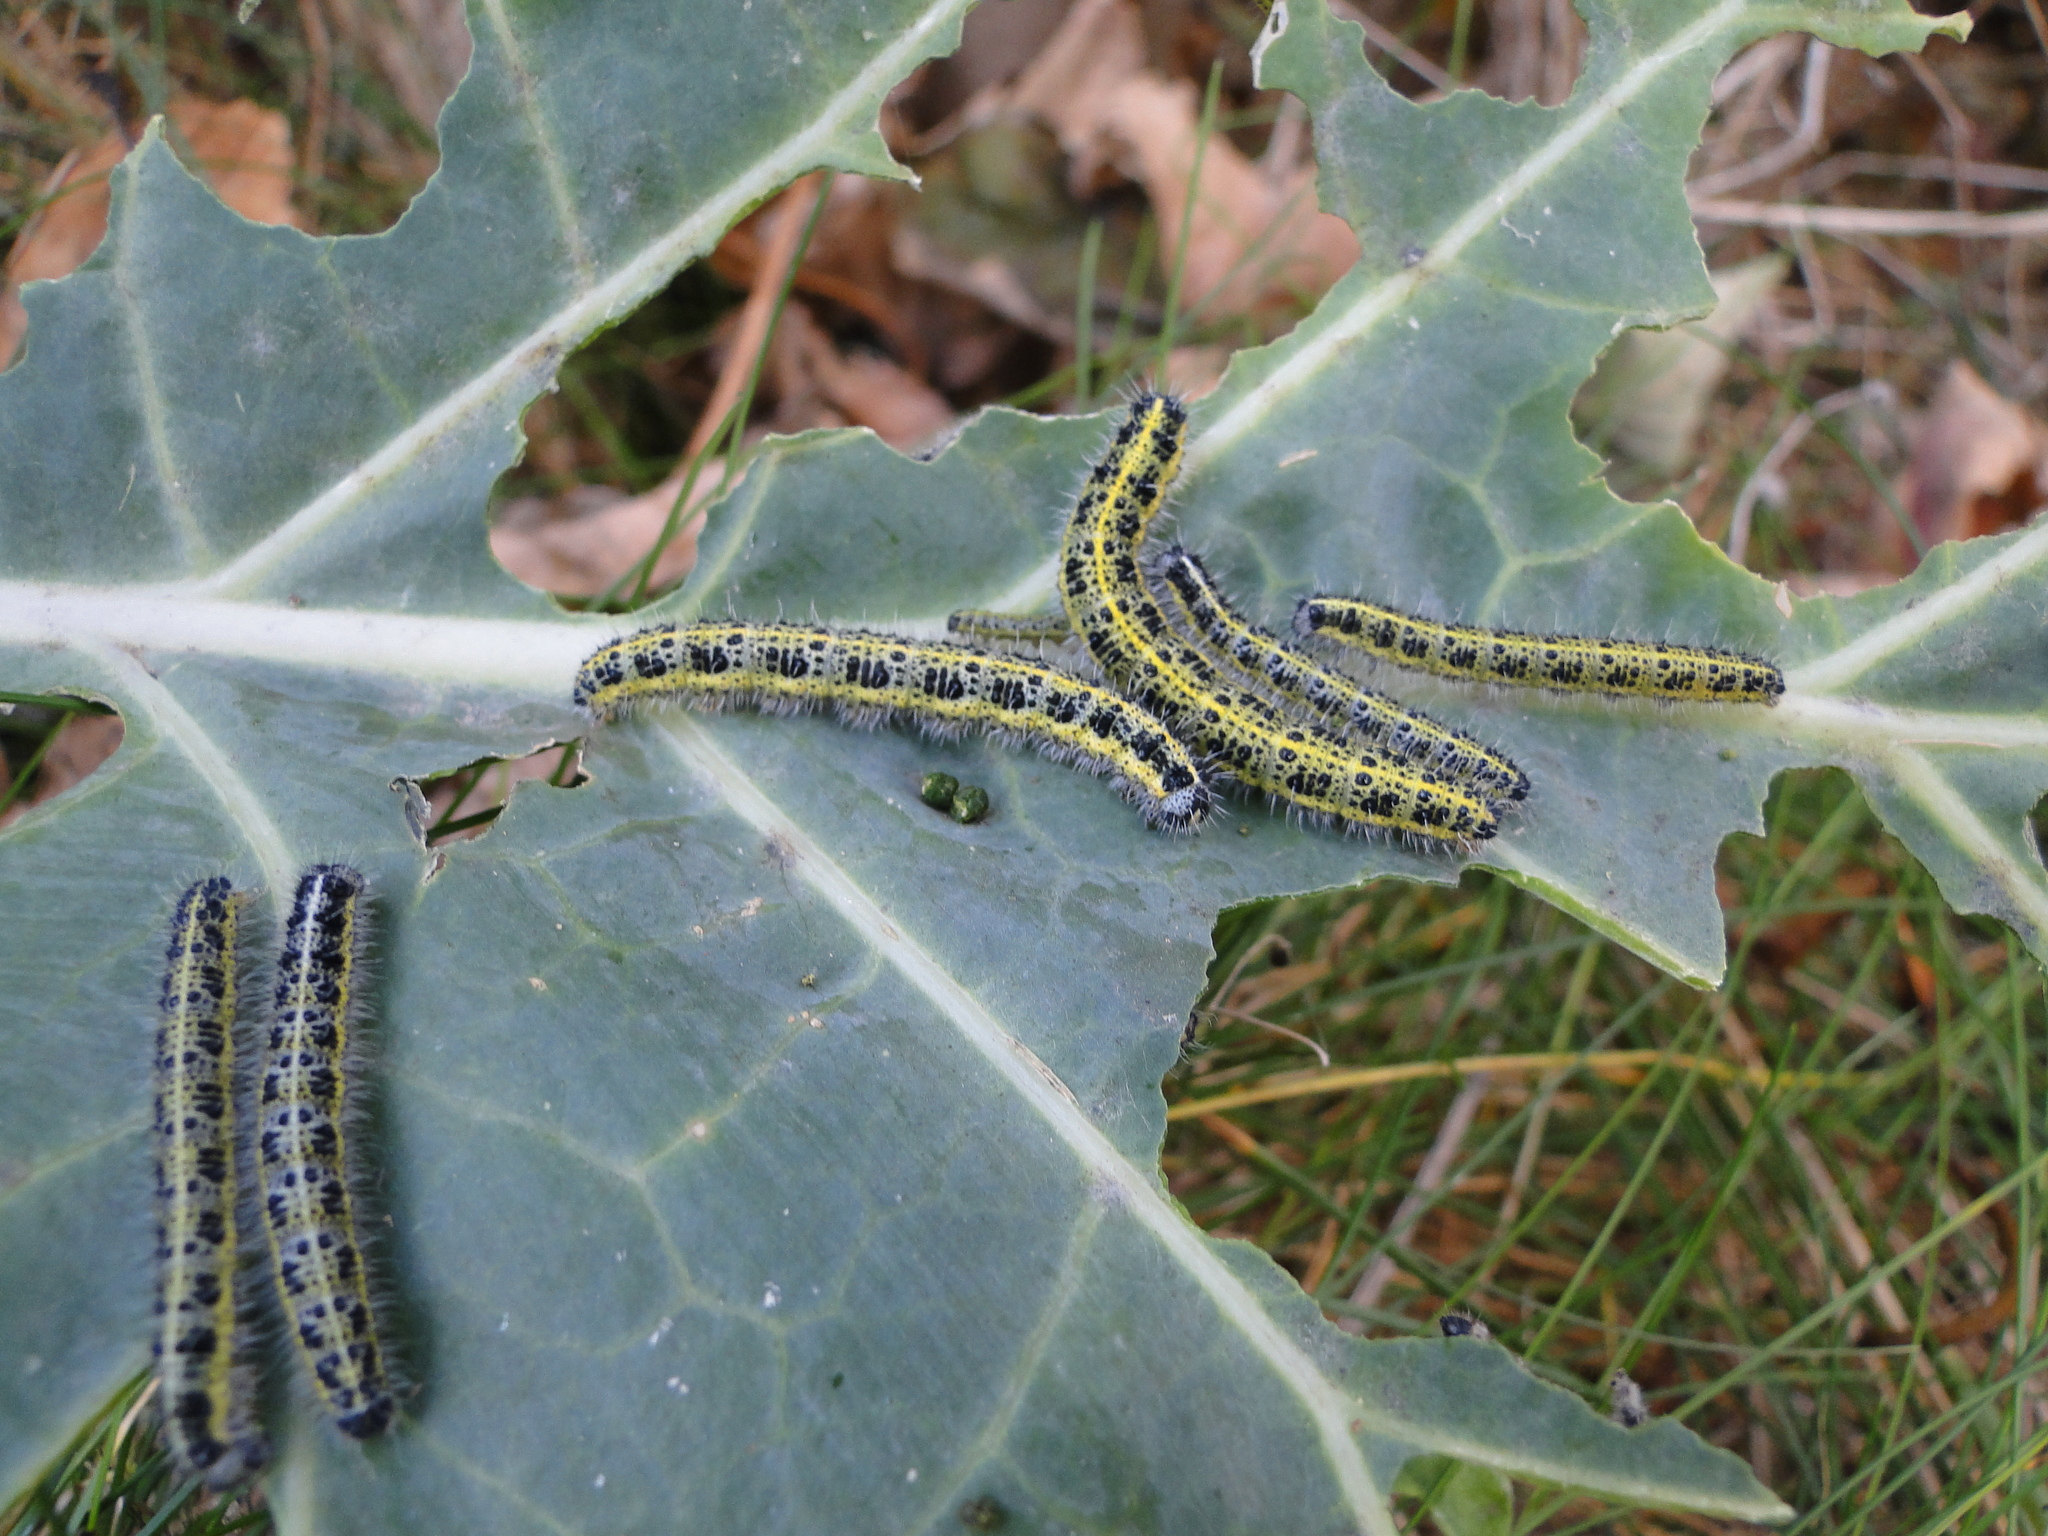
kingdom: Animalia
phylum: Arthropoda
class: Insecta
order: Lepidoptera
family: Pieridae
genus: Pieris
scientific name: Pieris brassicae
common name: Large white
